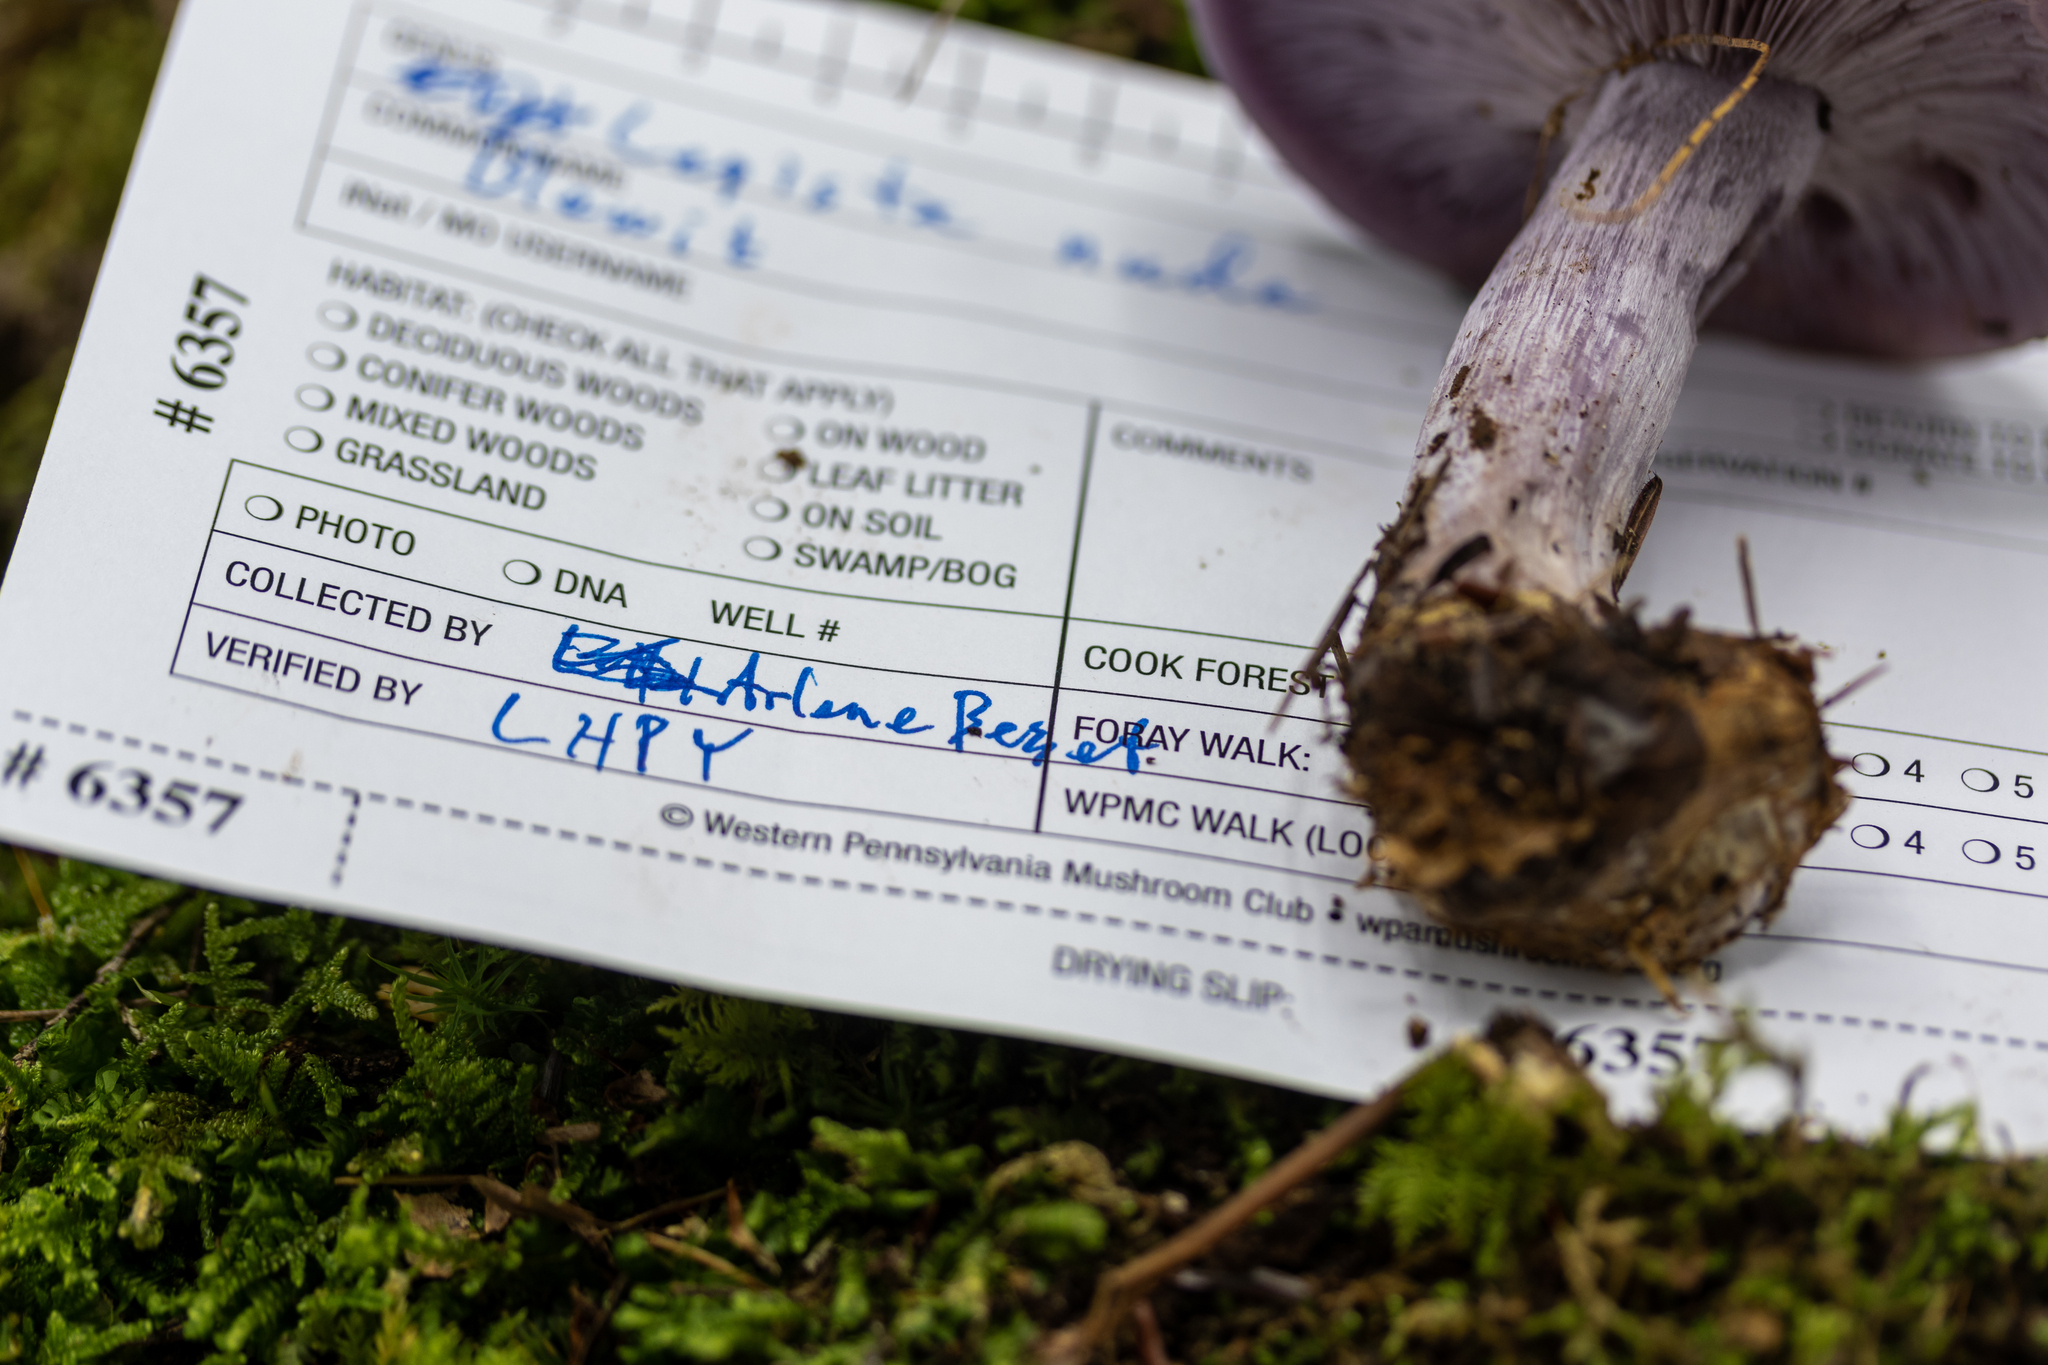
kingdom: Fungi
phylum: Basidiomycota
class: Agaricomycetes
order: Agaricales
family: Tricholomataceae
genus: Collybia
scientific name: Collybia
